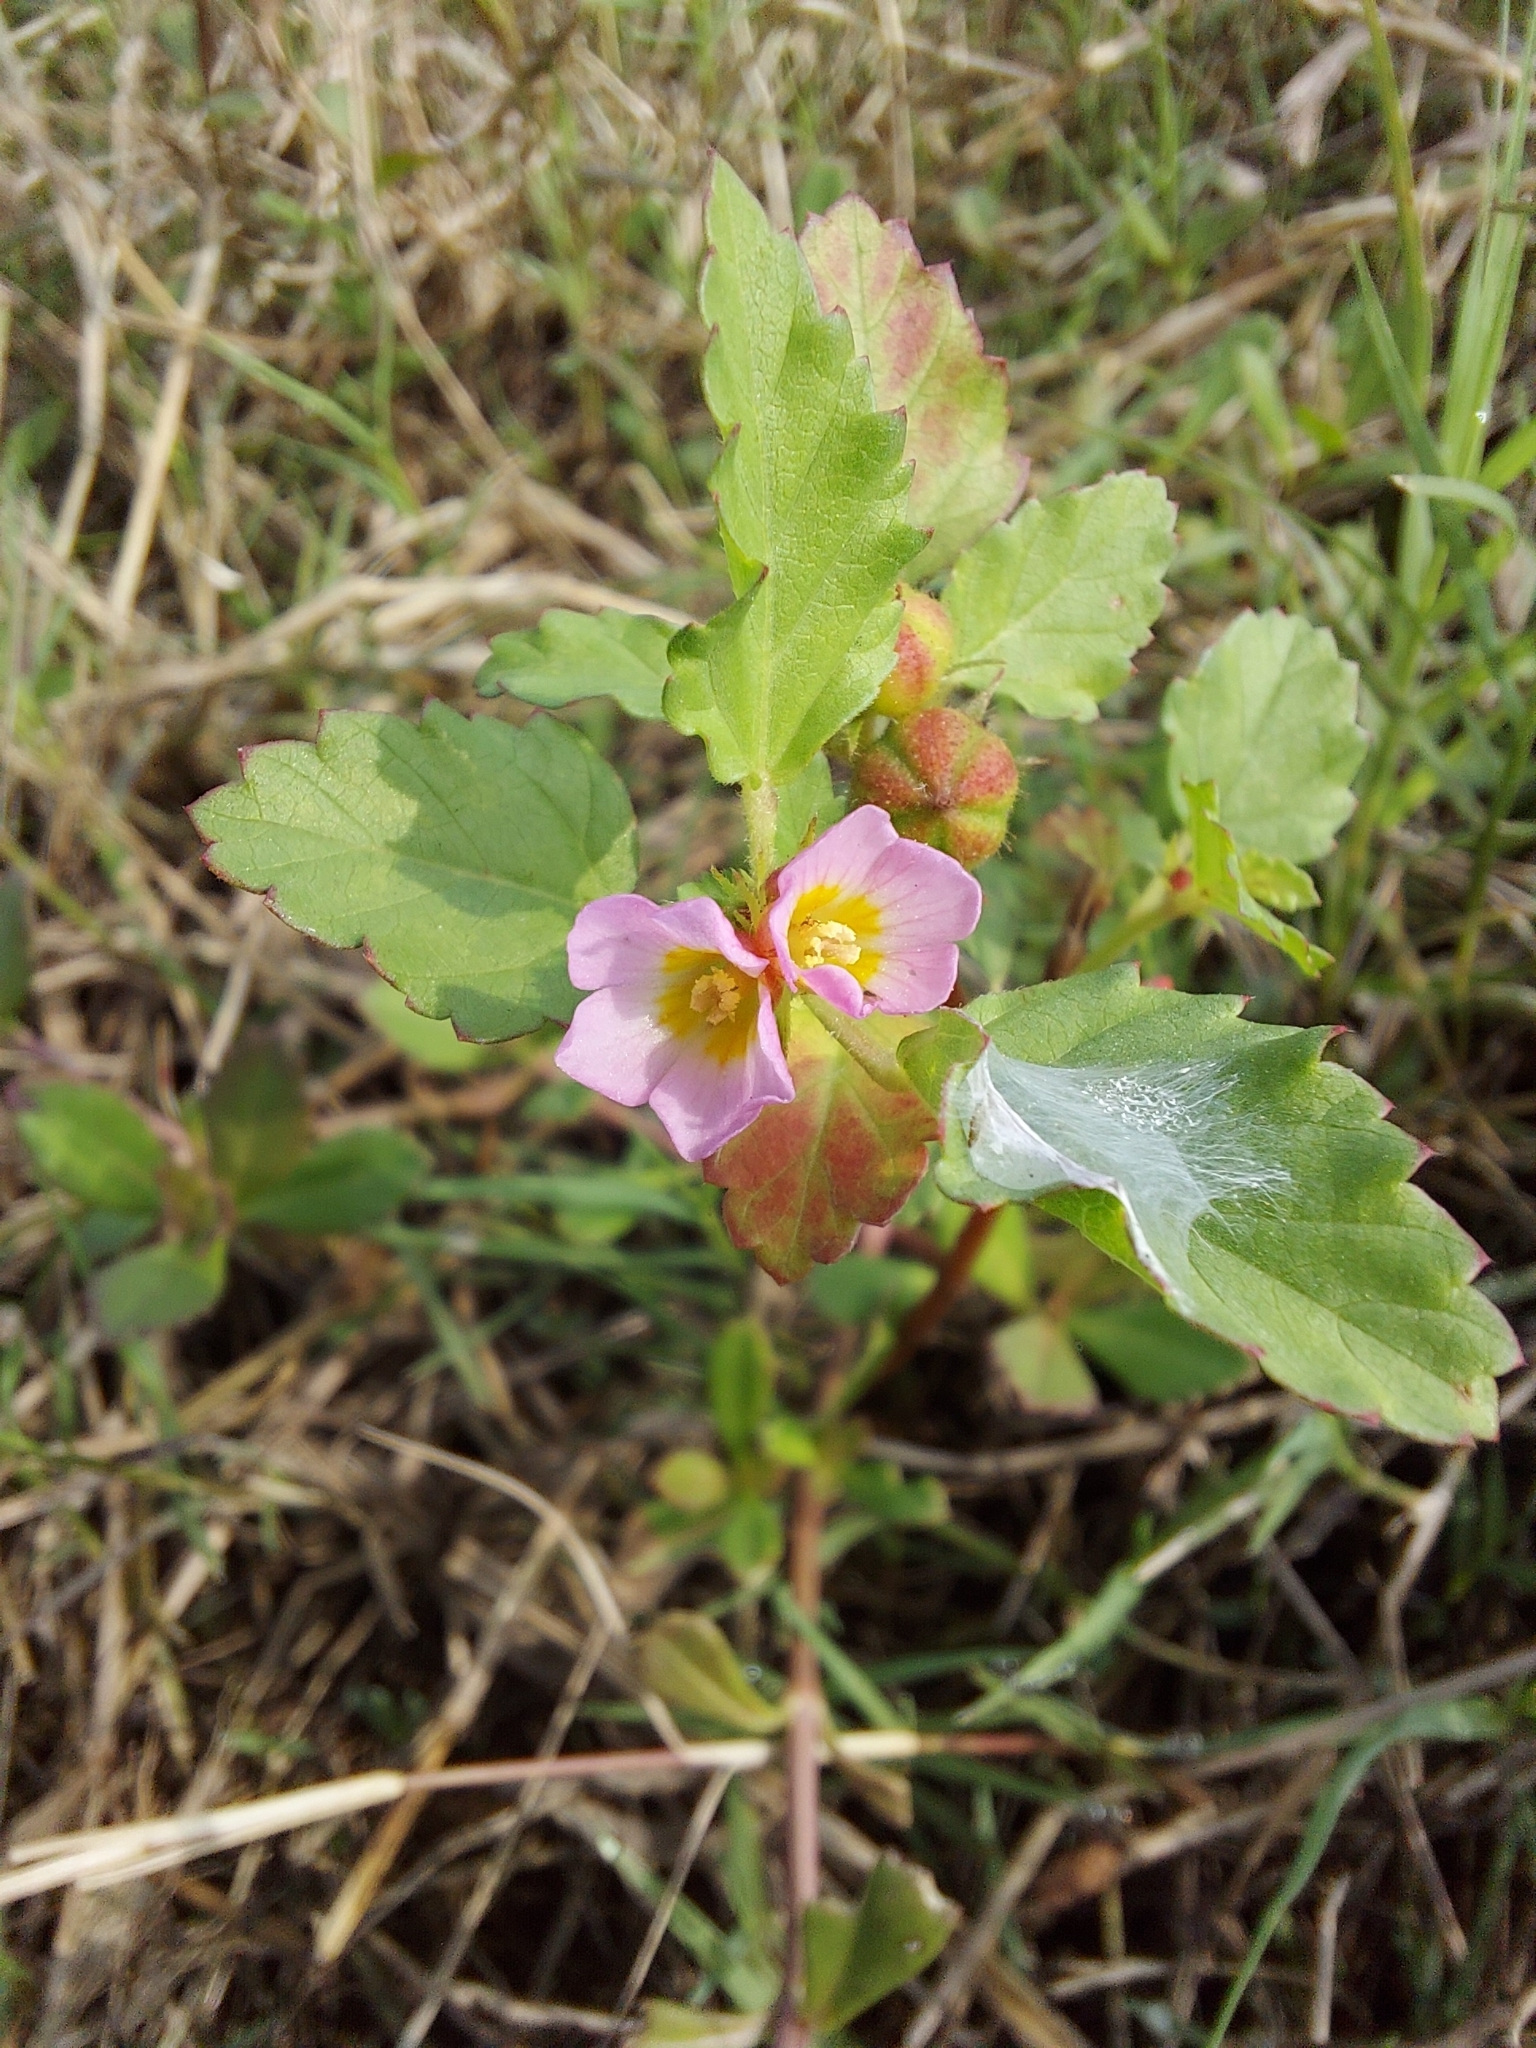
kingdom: Plantae
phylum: Tracheophyta
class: Magnoliopsida
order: Malvales
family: Malvaceae
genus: Melochia
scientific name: Melochia corchorifolia
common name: Chocolateweed
